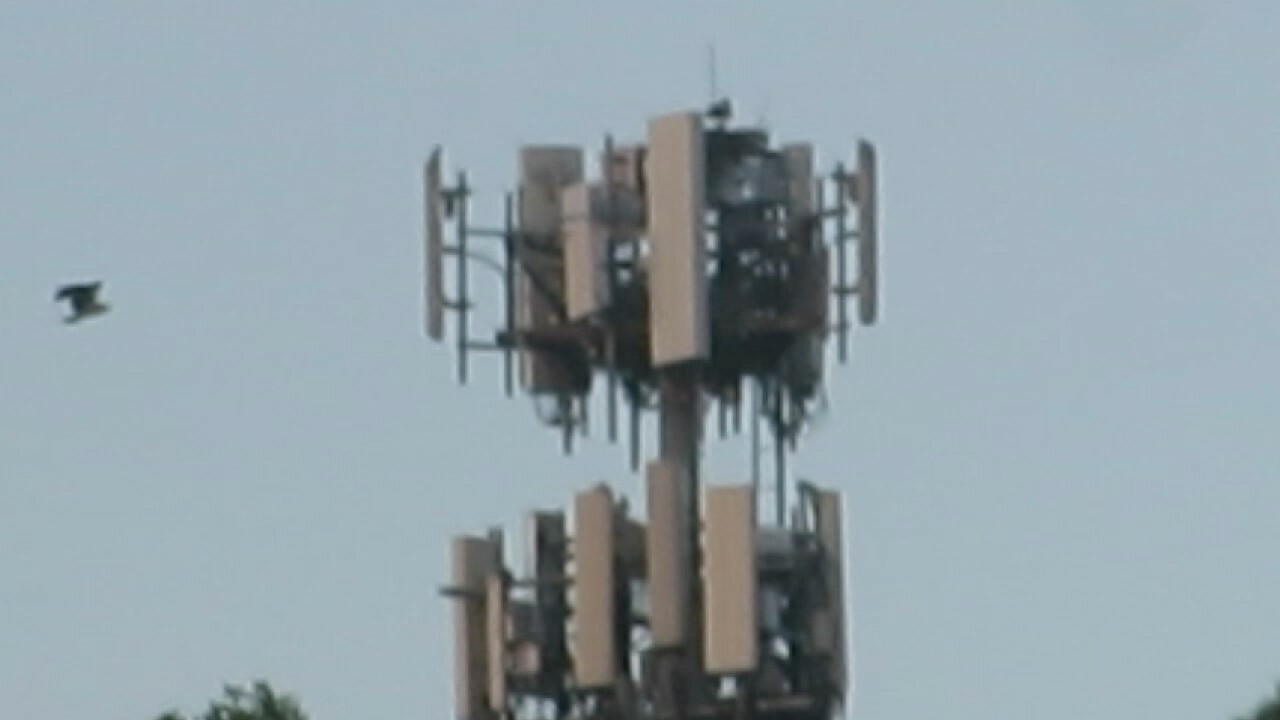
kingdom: Animalia
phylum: Chordata
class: Aves
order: Accipitriformes
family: Pandionidae
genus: Pandion
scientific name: Pandion haliaetus
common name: Osprey
